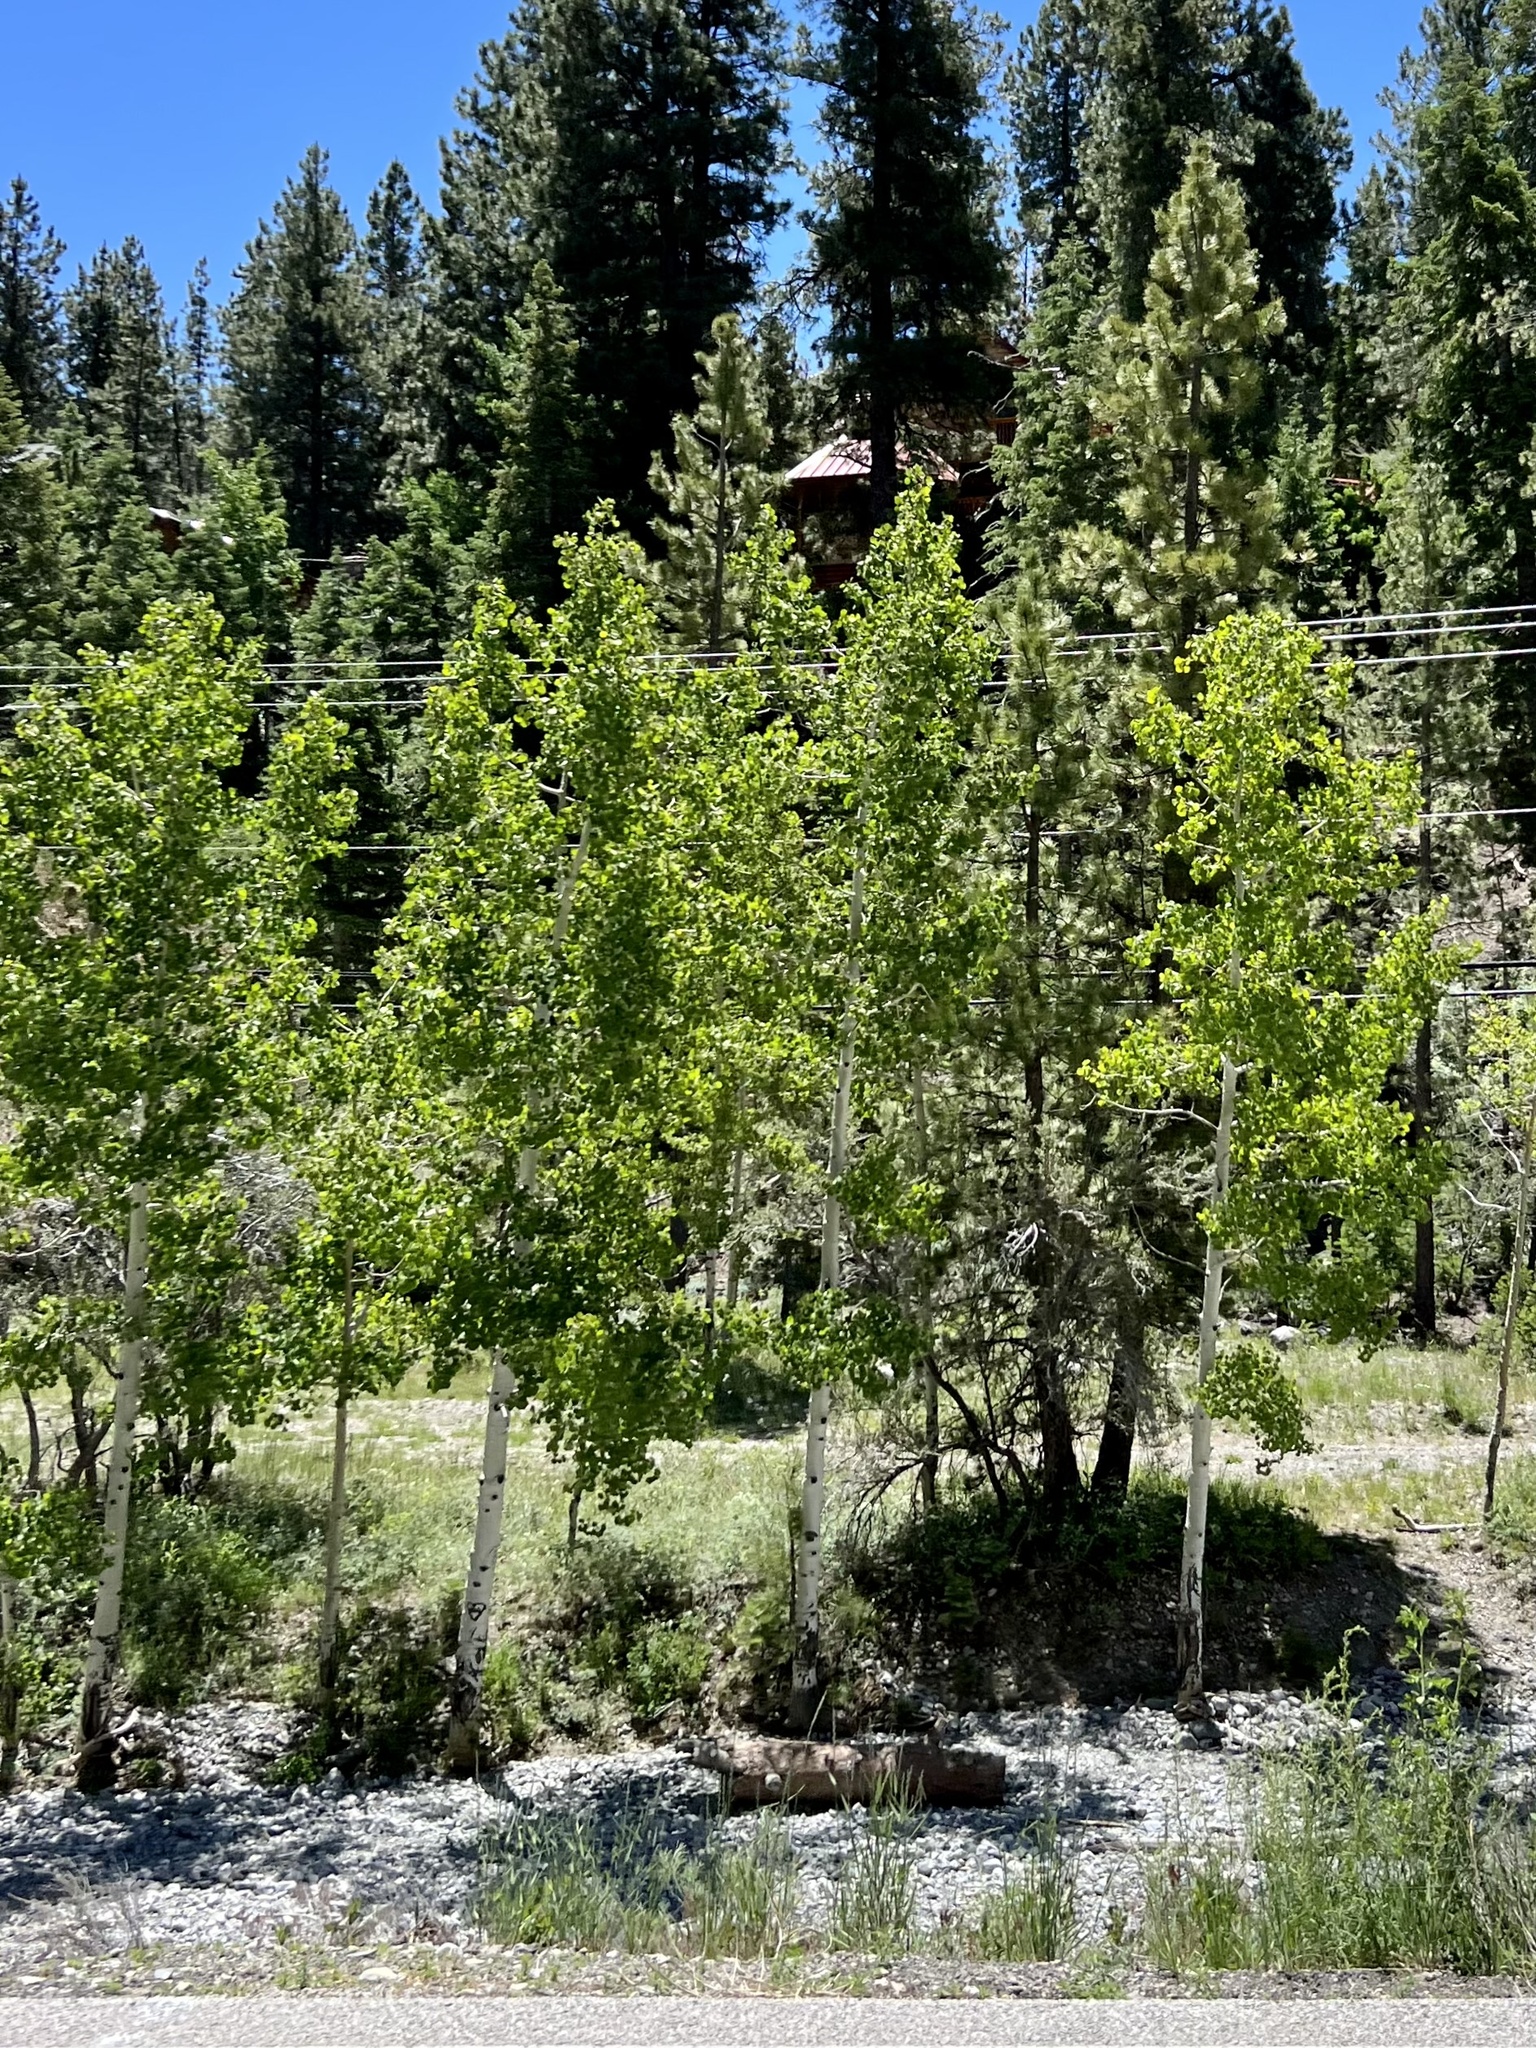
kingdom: Plantae
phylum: Tracheophyta
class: Magnoliopsida
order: Malpighiales
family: Salicaceae
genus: Populus
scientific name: Populus tremuloides
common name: Quaking aspen
